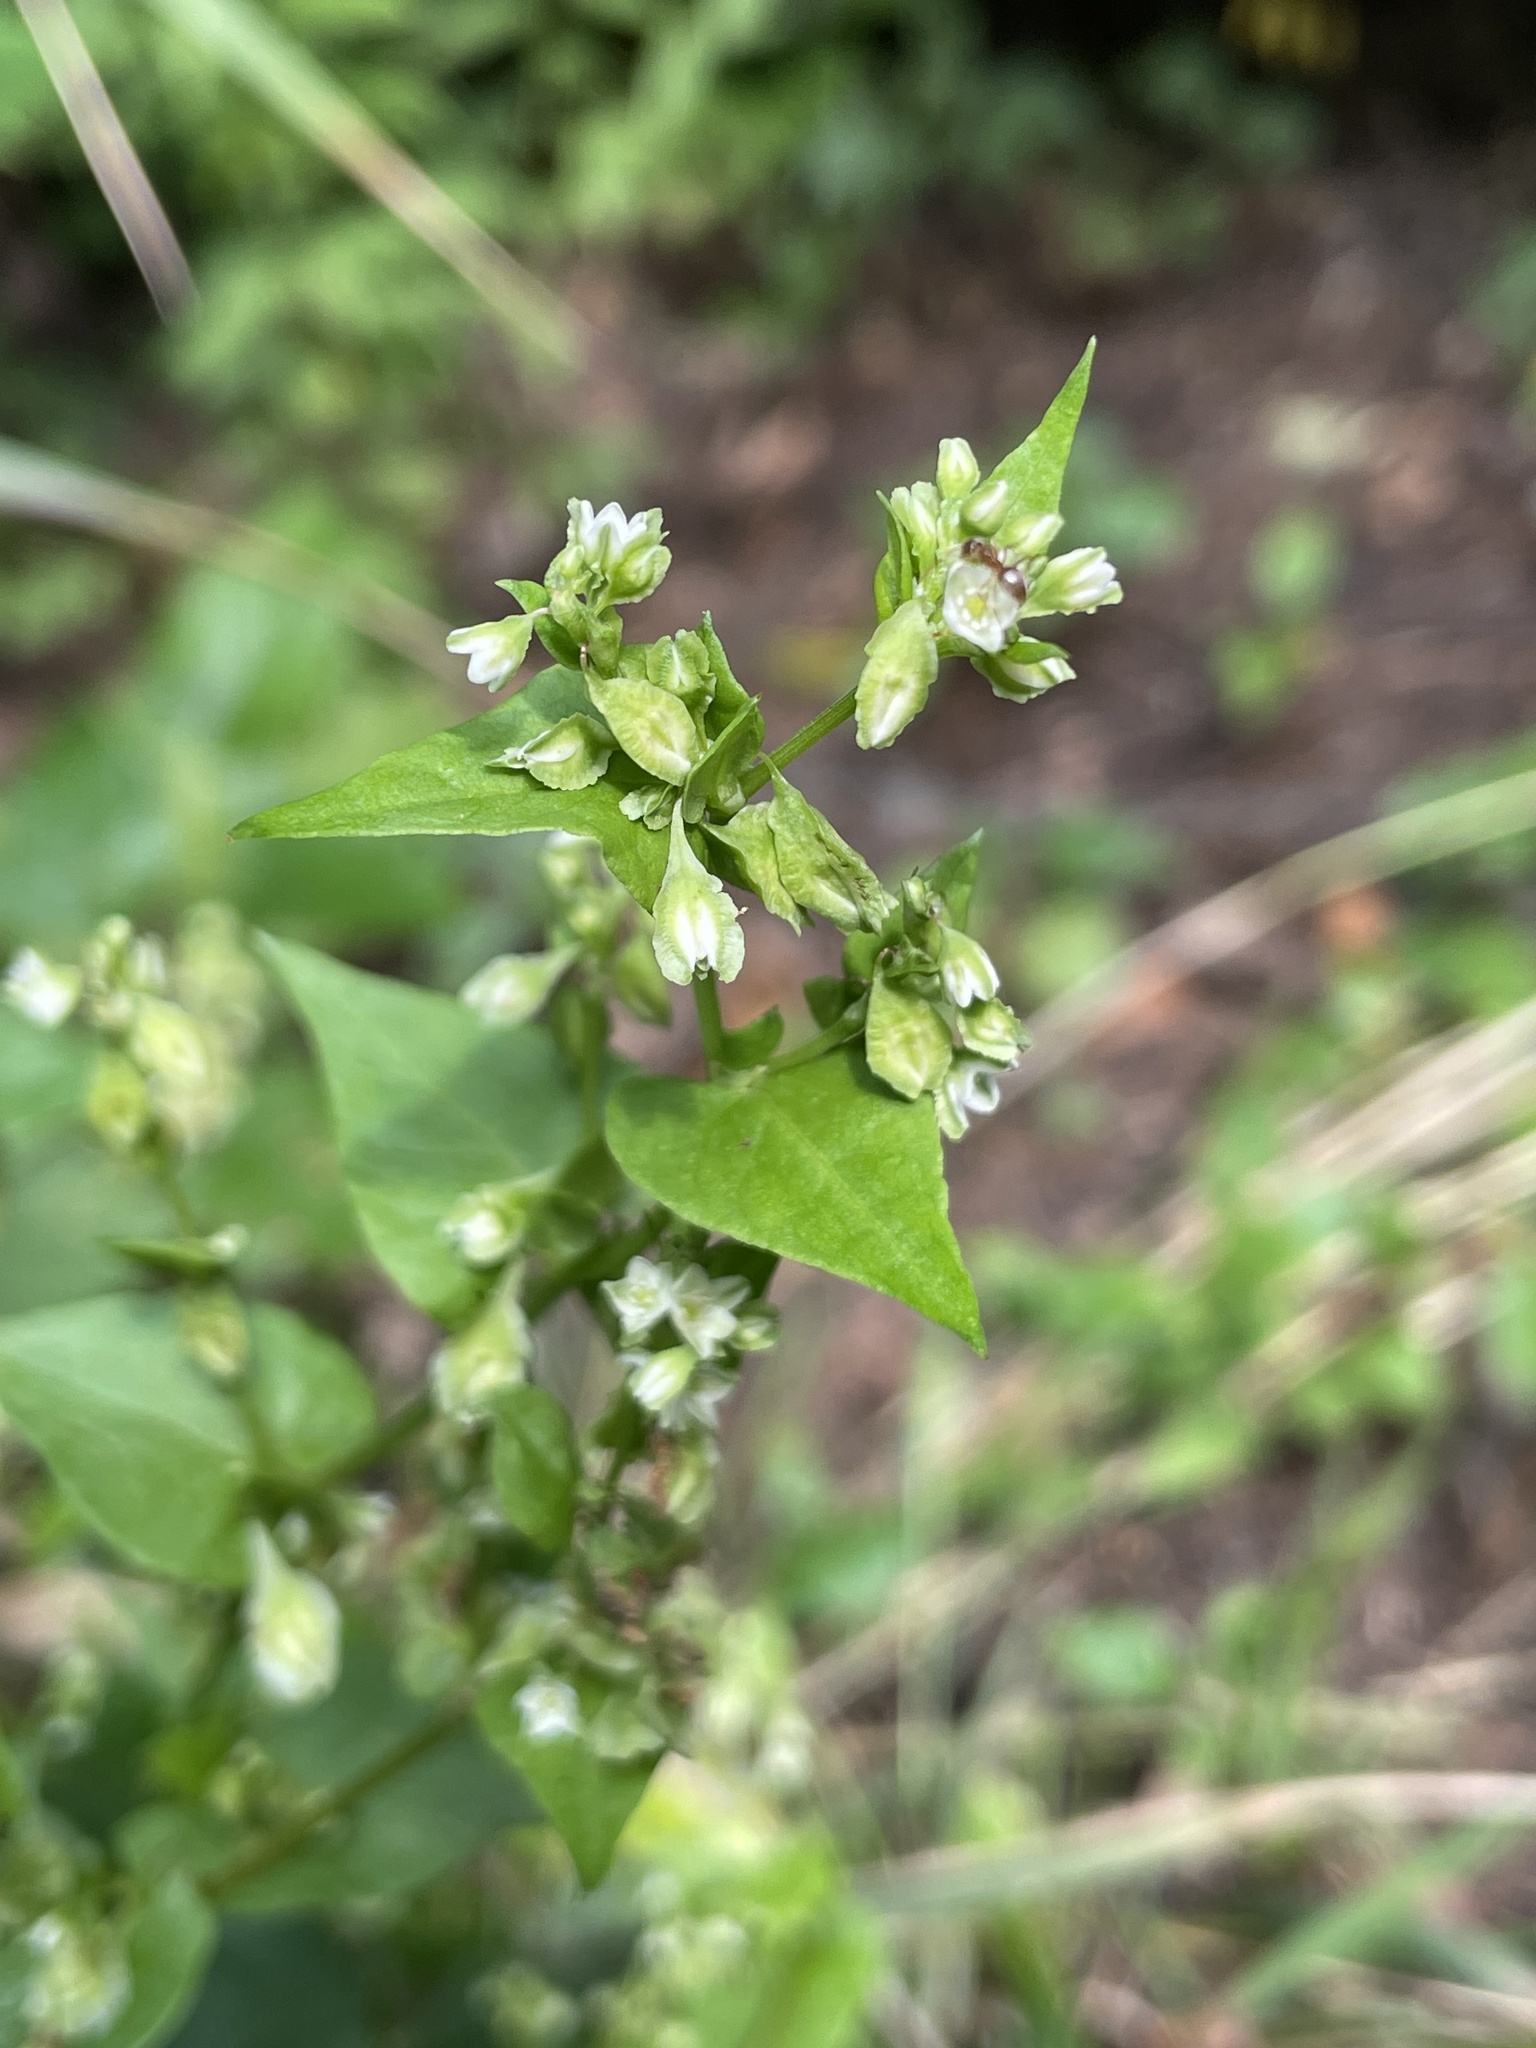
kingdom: Plantae
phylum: Tracheophyta
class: Magnoliopsida
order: Caryophyllales
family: Polygonaceae
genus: Fallopia
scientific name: Fallopia scandens
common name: Climbing false buckwheat
